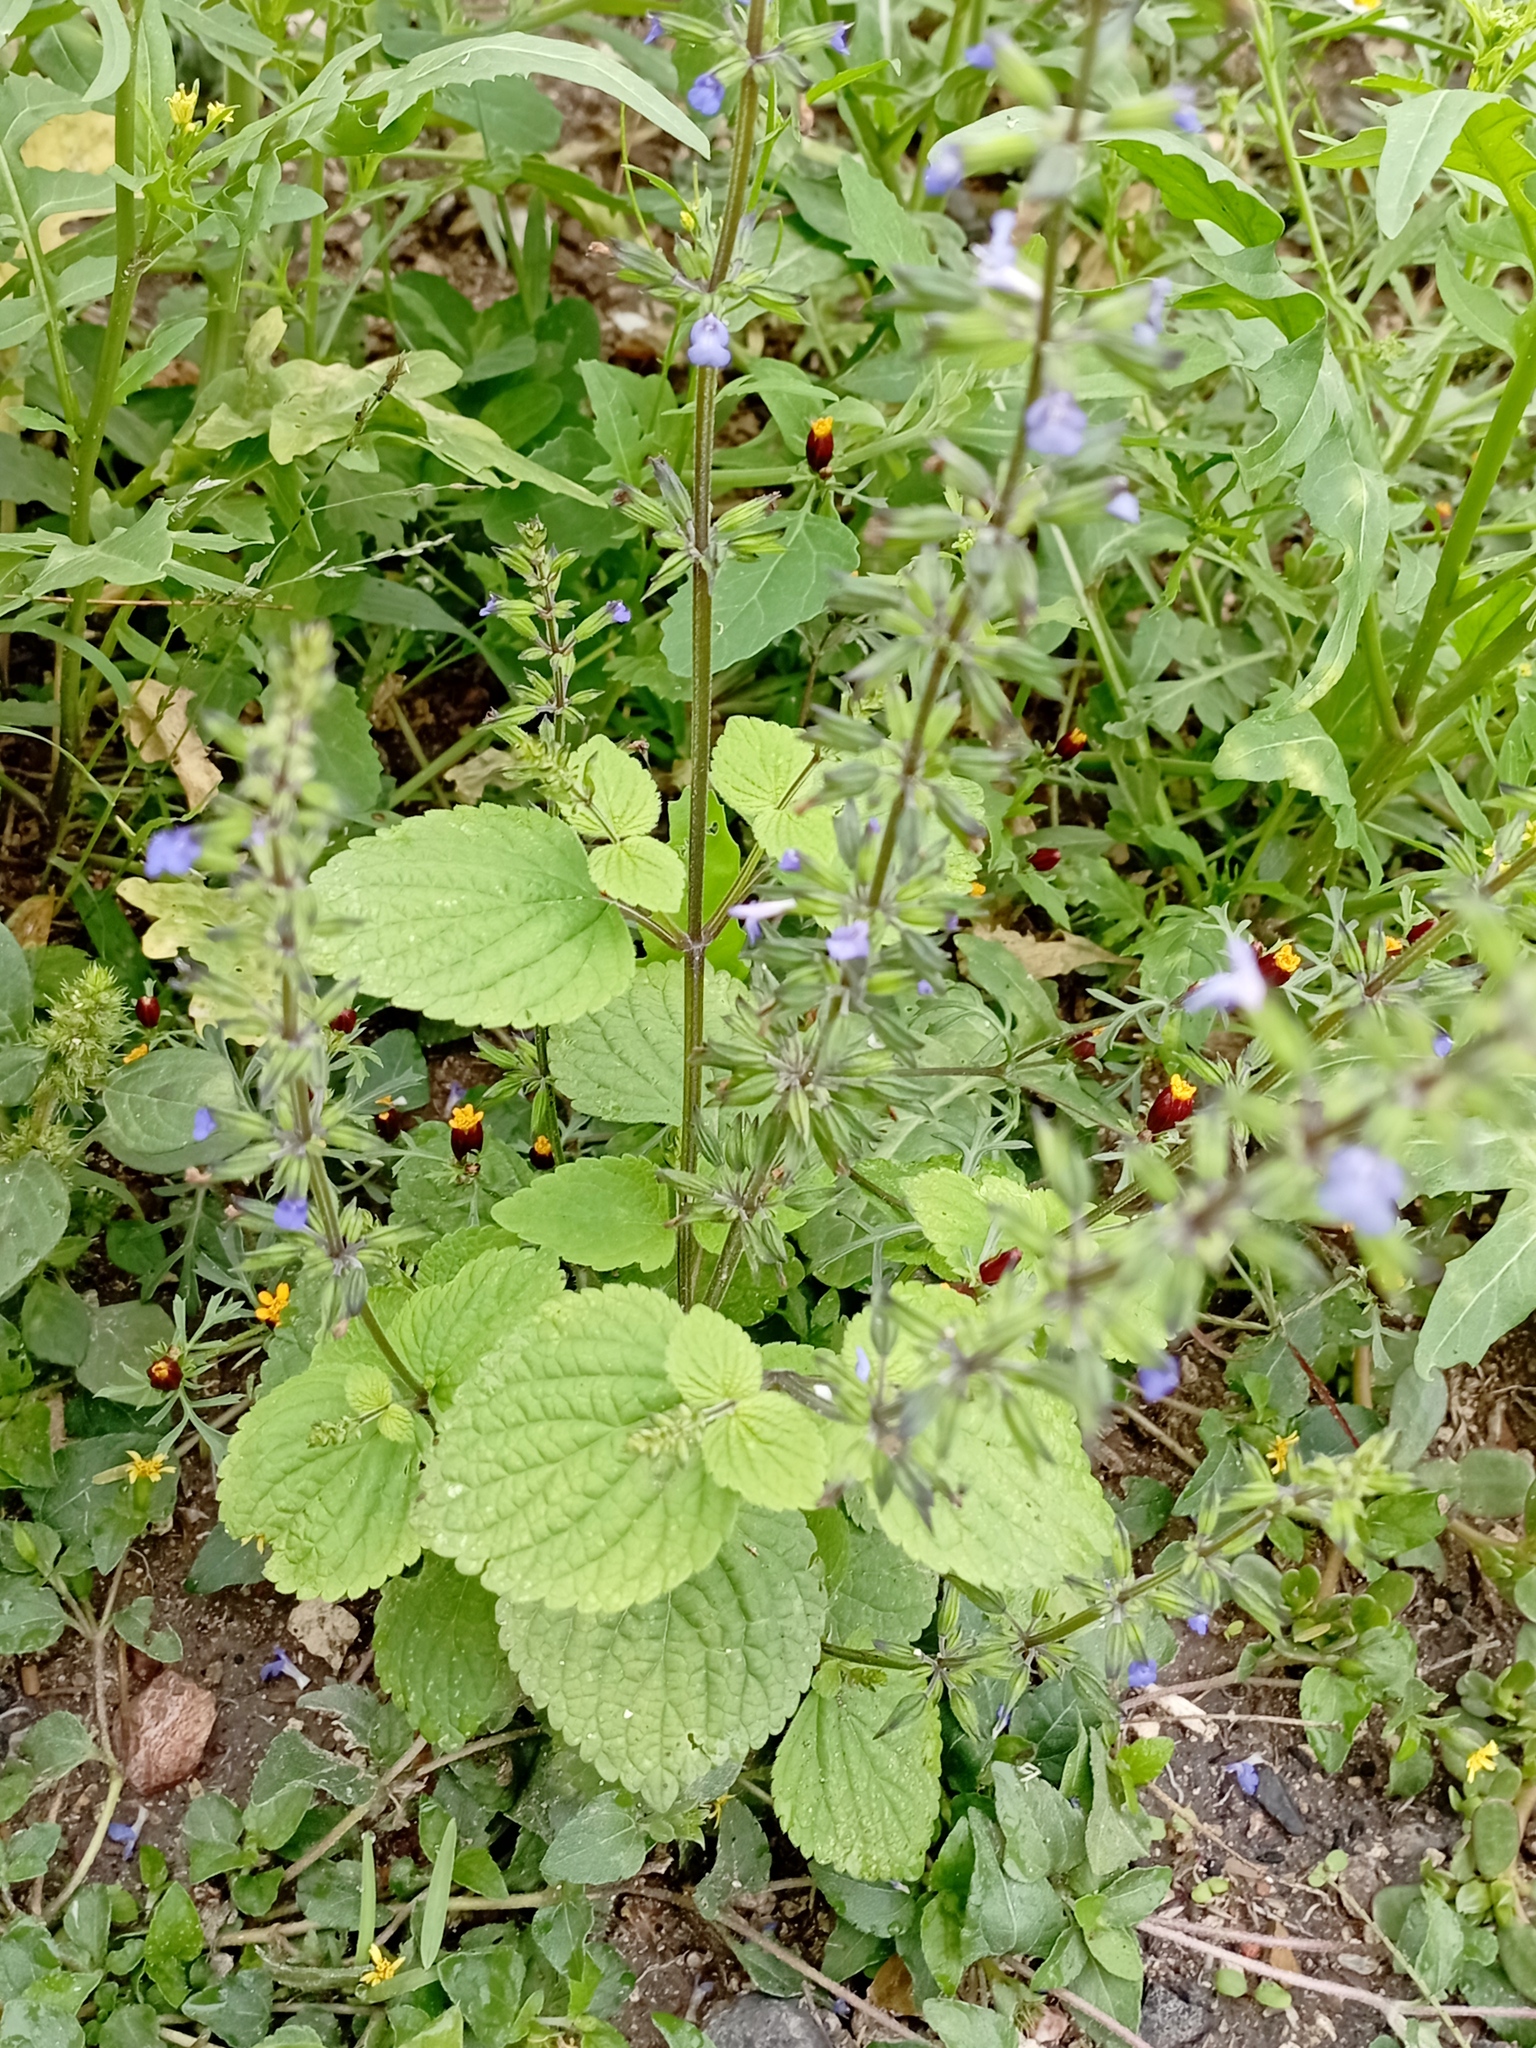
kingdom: Plantae
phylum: Tracheophyta
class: Magnoliopsida
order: Lamiales
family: Lamiaceae
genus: Salvia
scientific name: Salvia tiliifolia
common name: Lindenleaf sage
